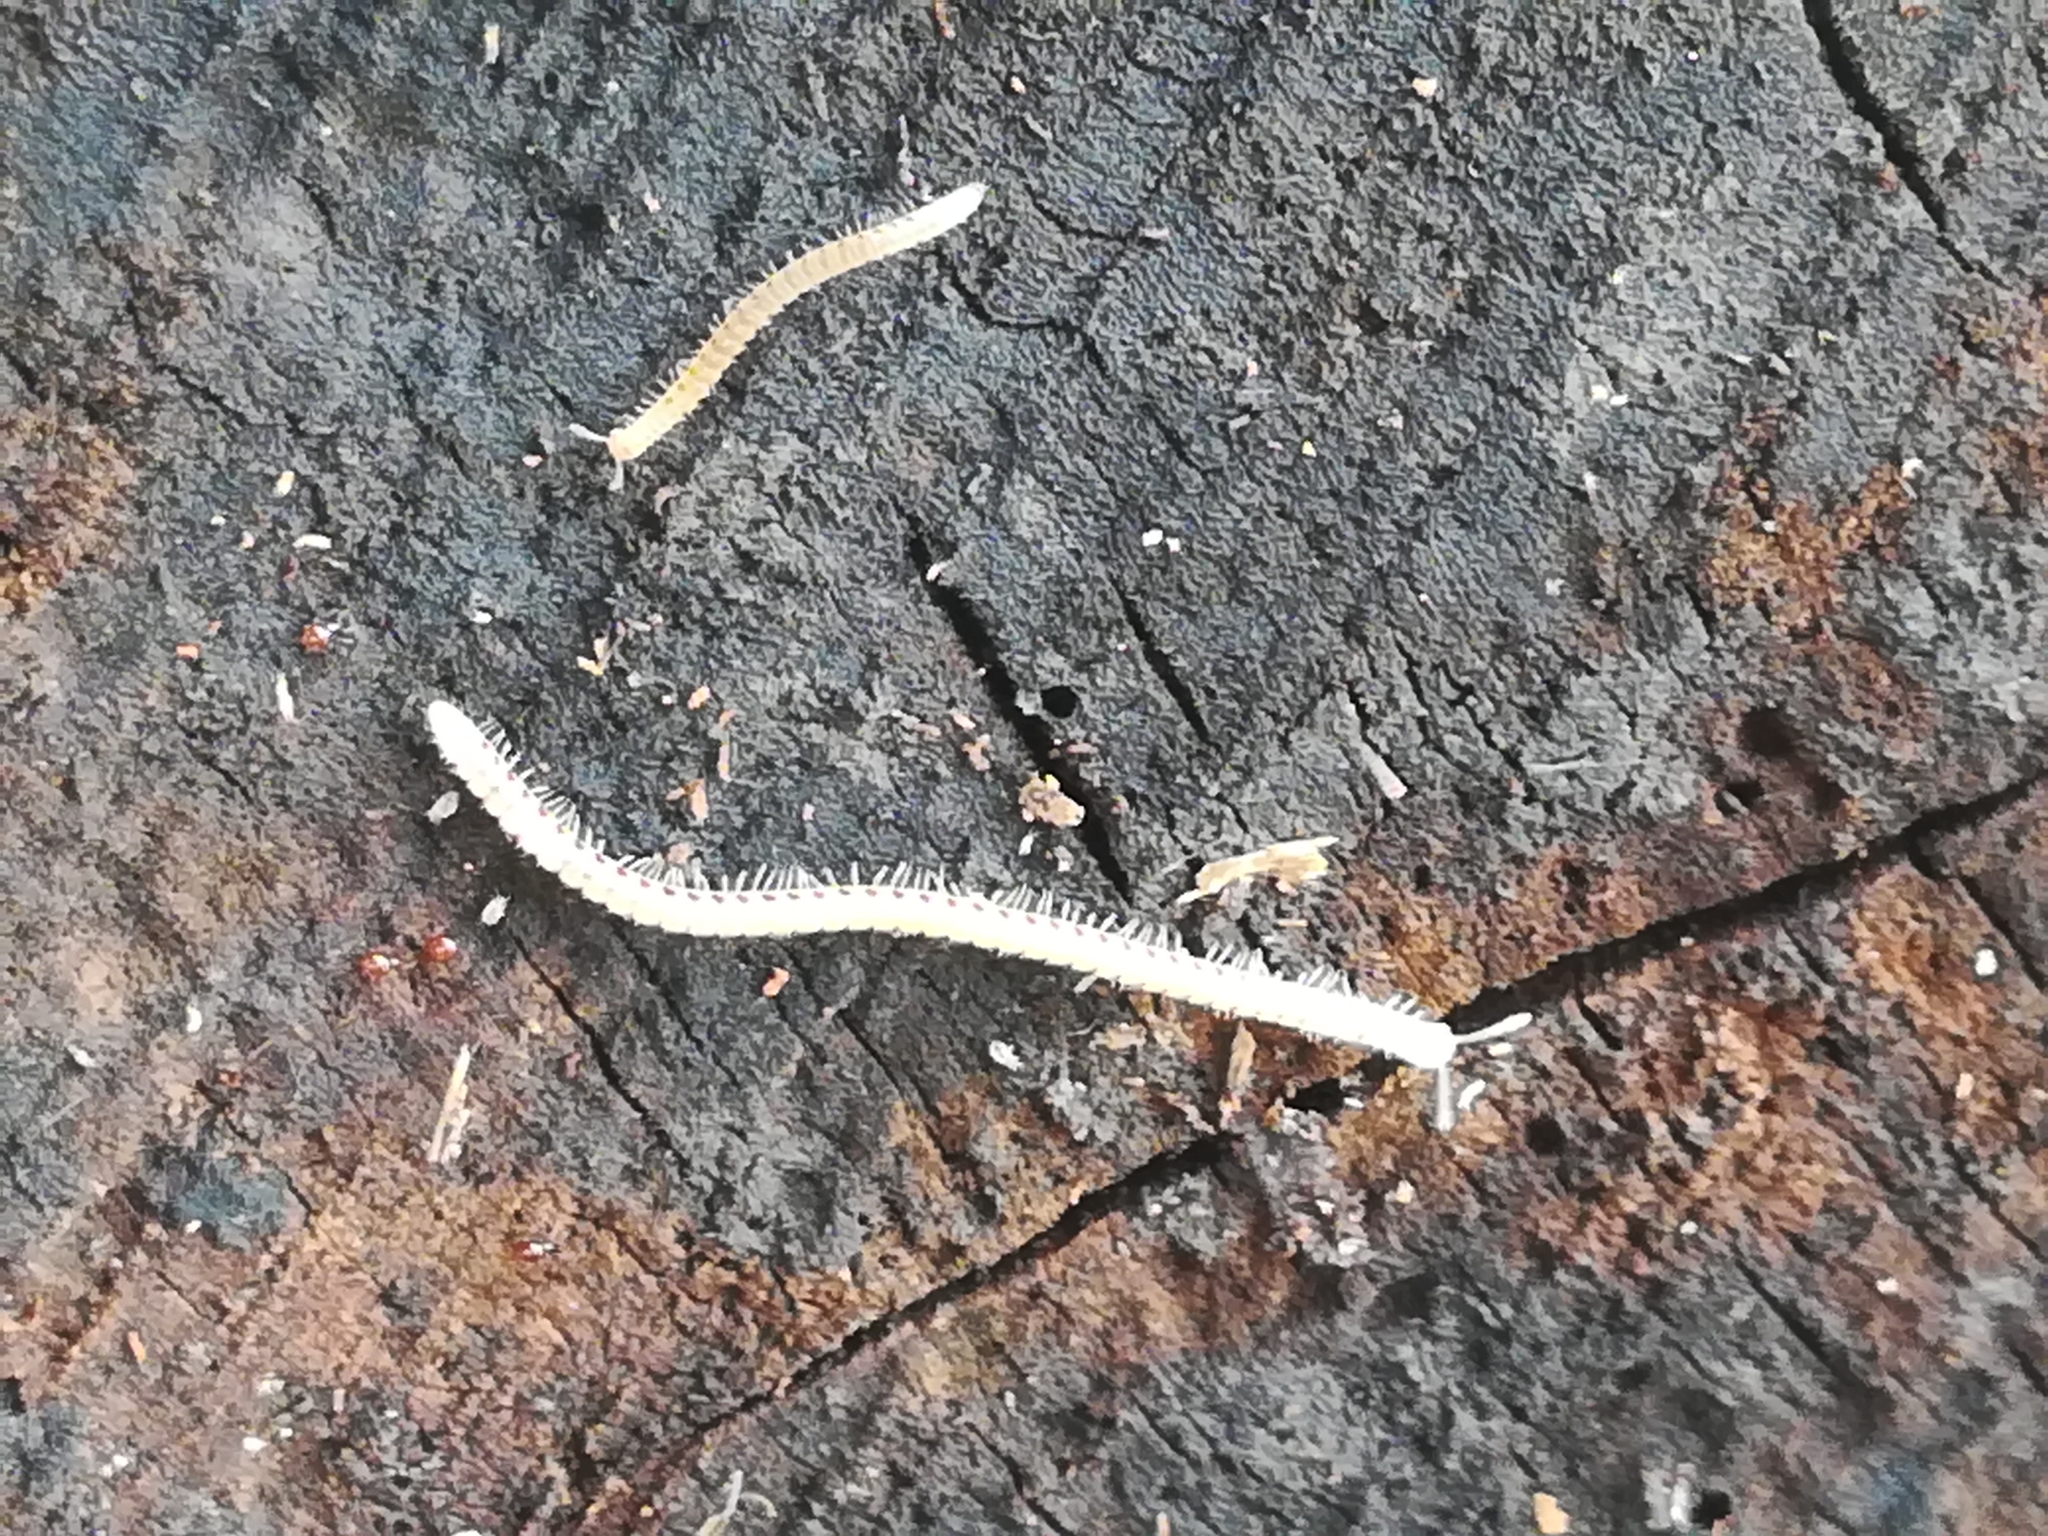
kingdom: Animalia
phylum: Arthropoda
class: Diplopoda
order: Julida
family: Blaniulidae
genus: Blaniulus
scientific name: Blaniulus guttulatus
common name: Spotted snake millipede
